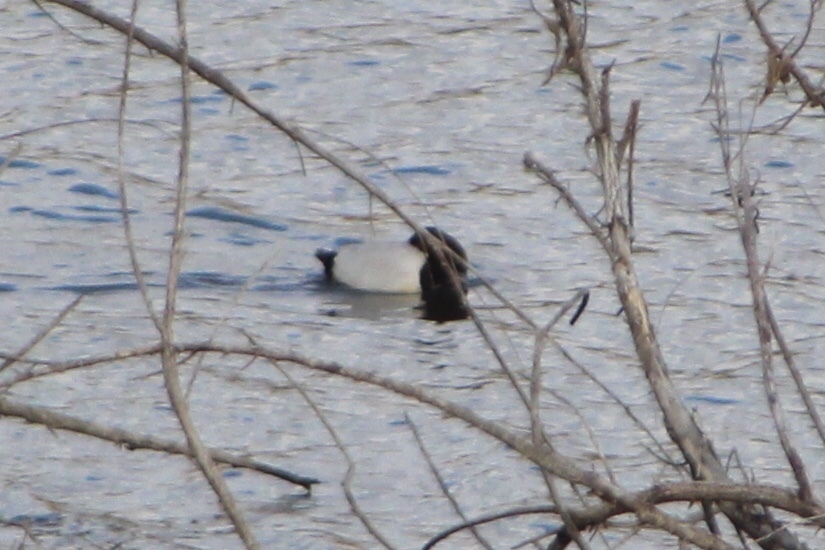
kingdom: Animalia
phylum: Chordata
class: Aves
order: Anseriformes
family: Anatidae
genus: Aythya
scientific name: Aythya valisineria
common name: Canvasback
